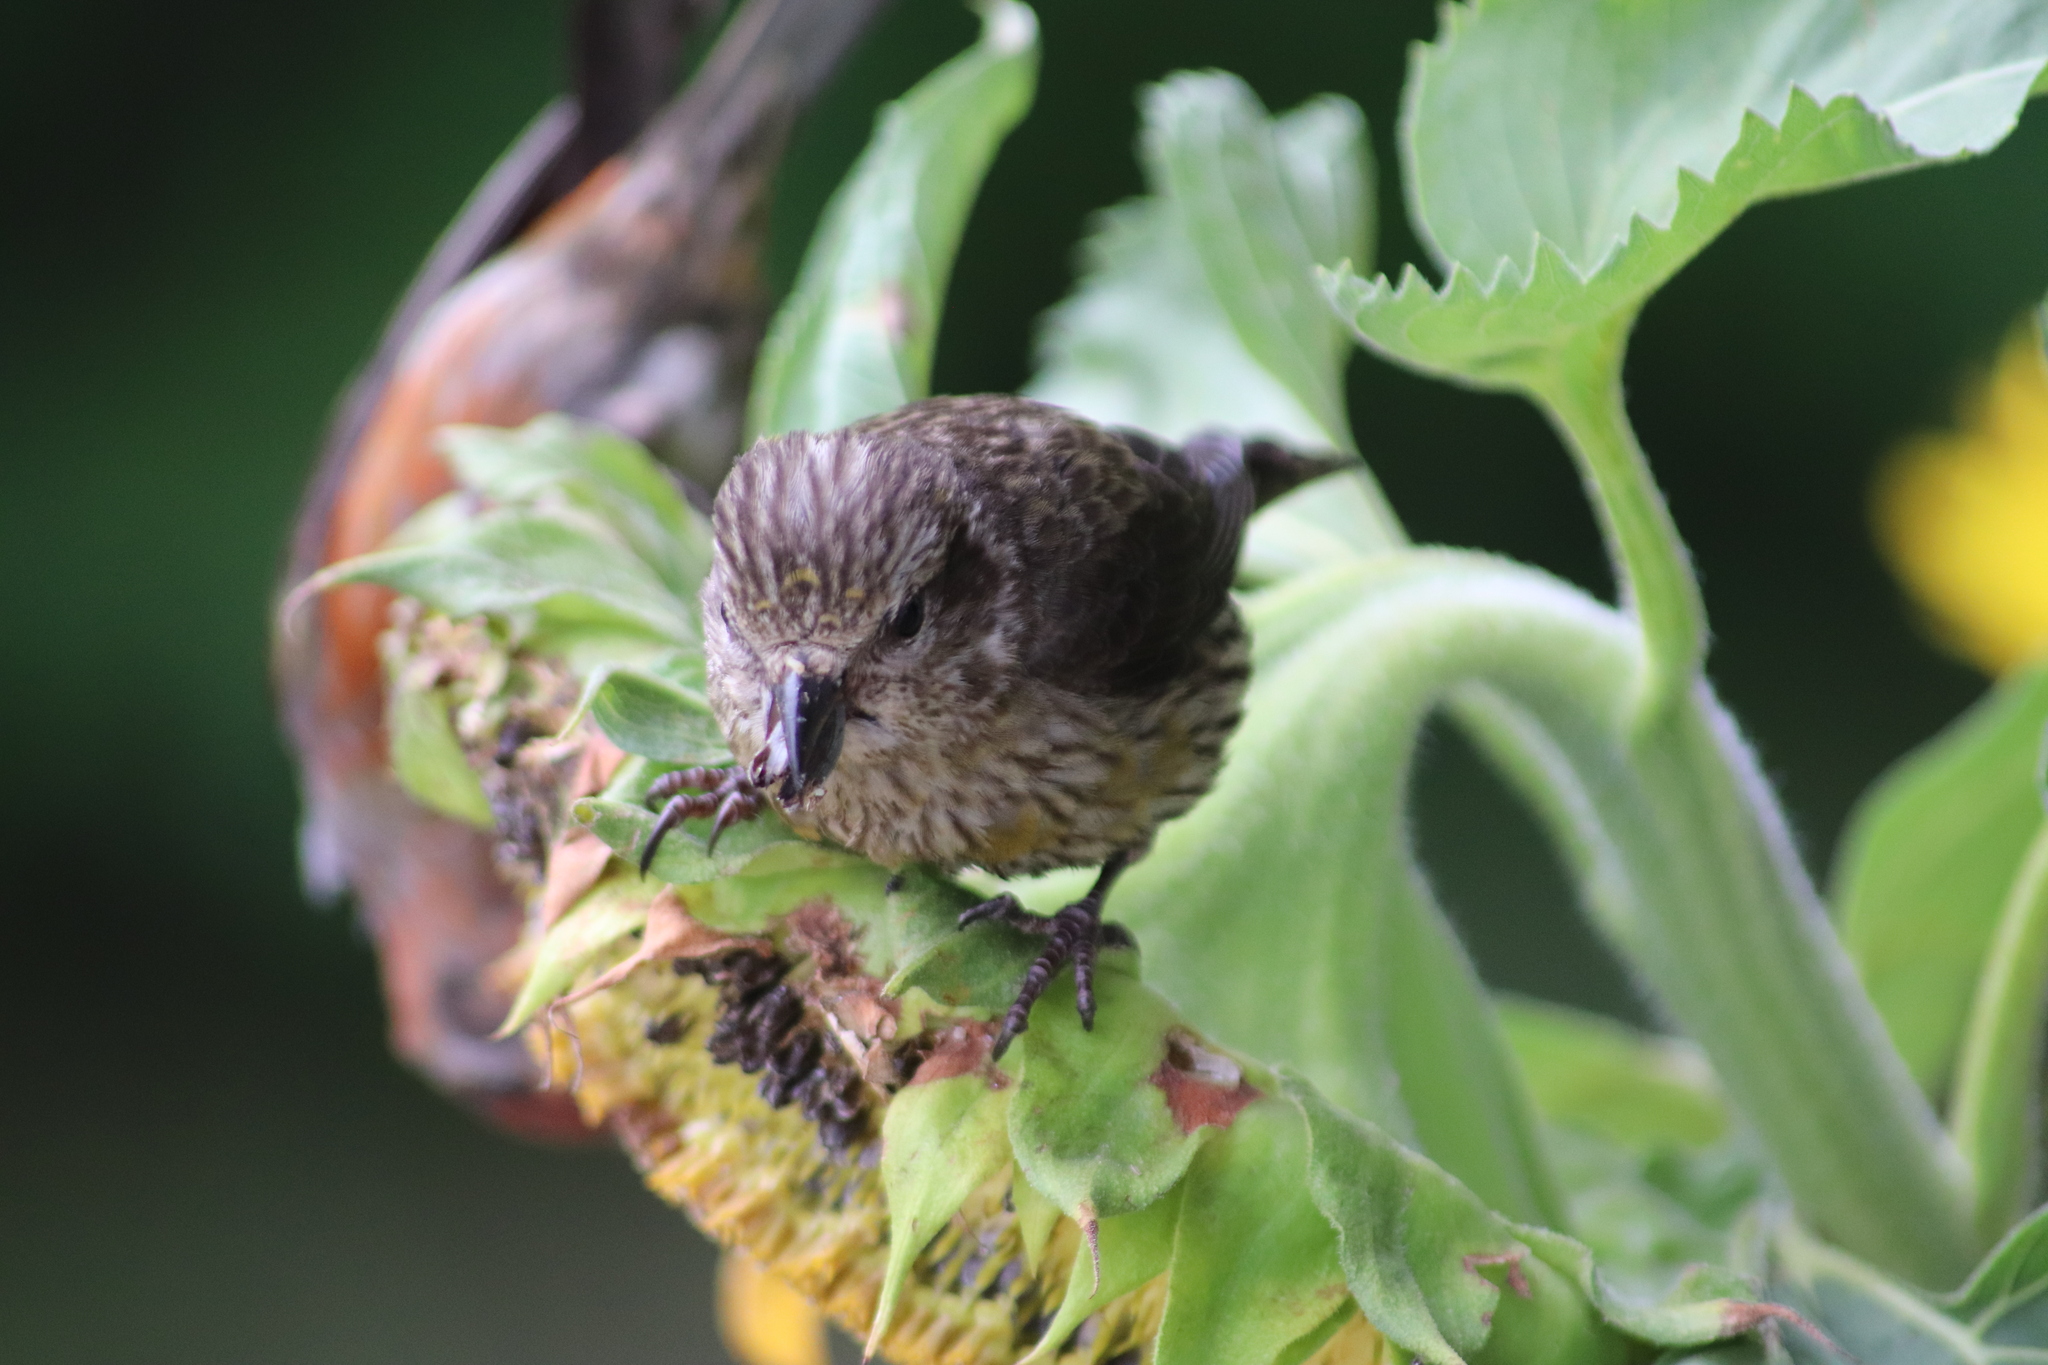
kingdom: Animalia
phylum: Chordata
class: Aves
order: Passeriformes
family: Fringillidae
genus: Loxia
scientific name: Loxia curvirostra
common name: Red crossbill
